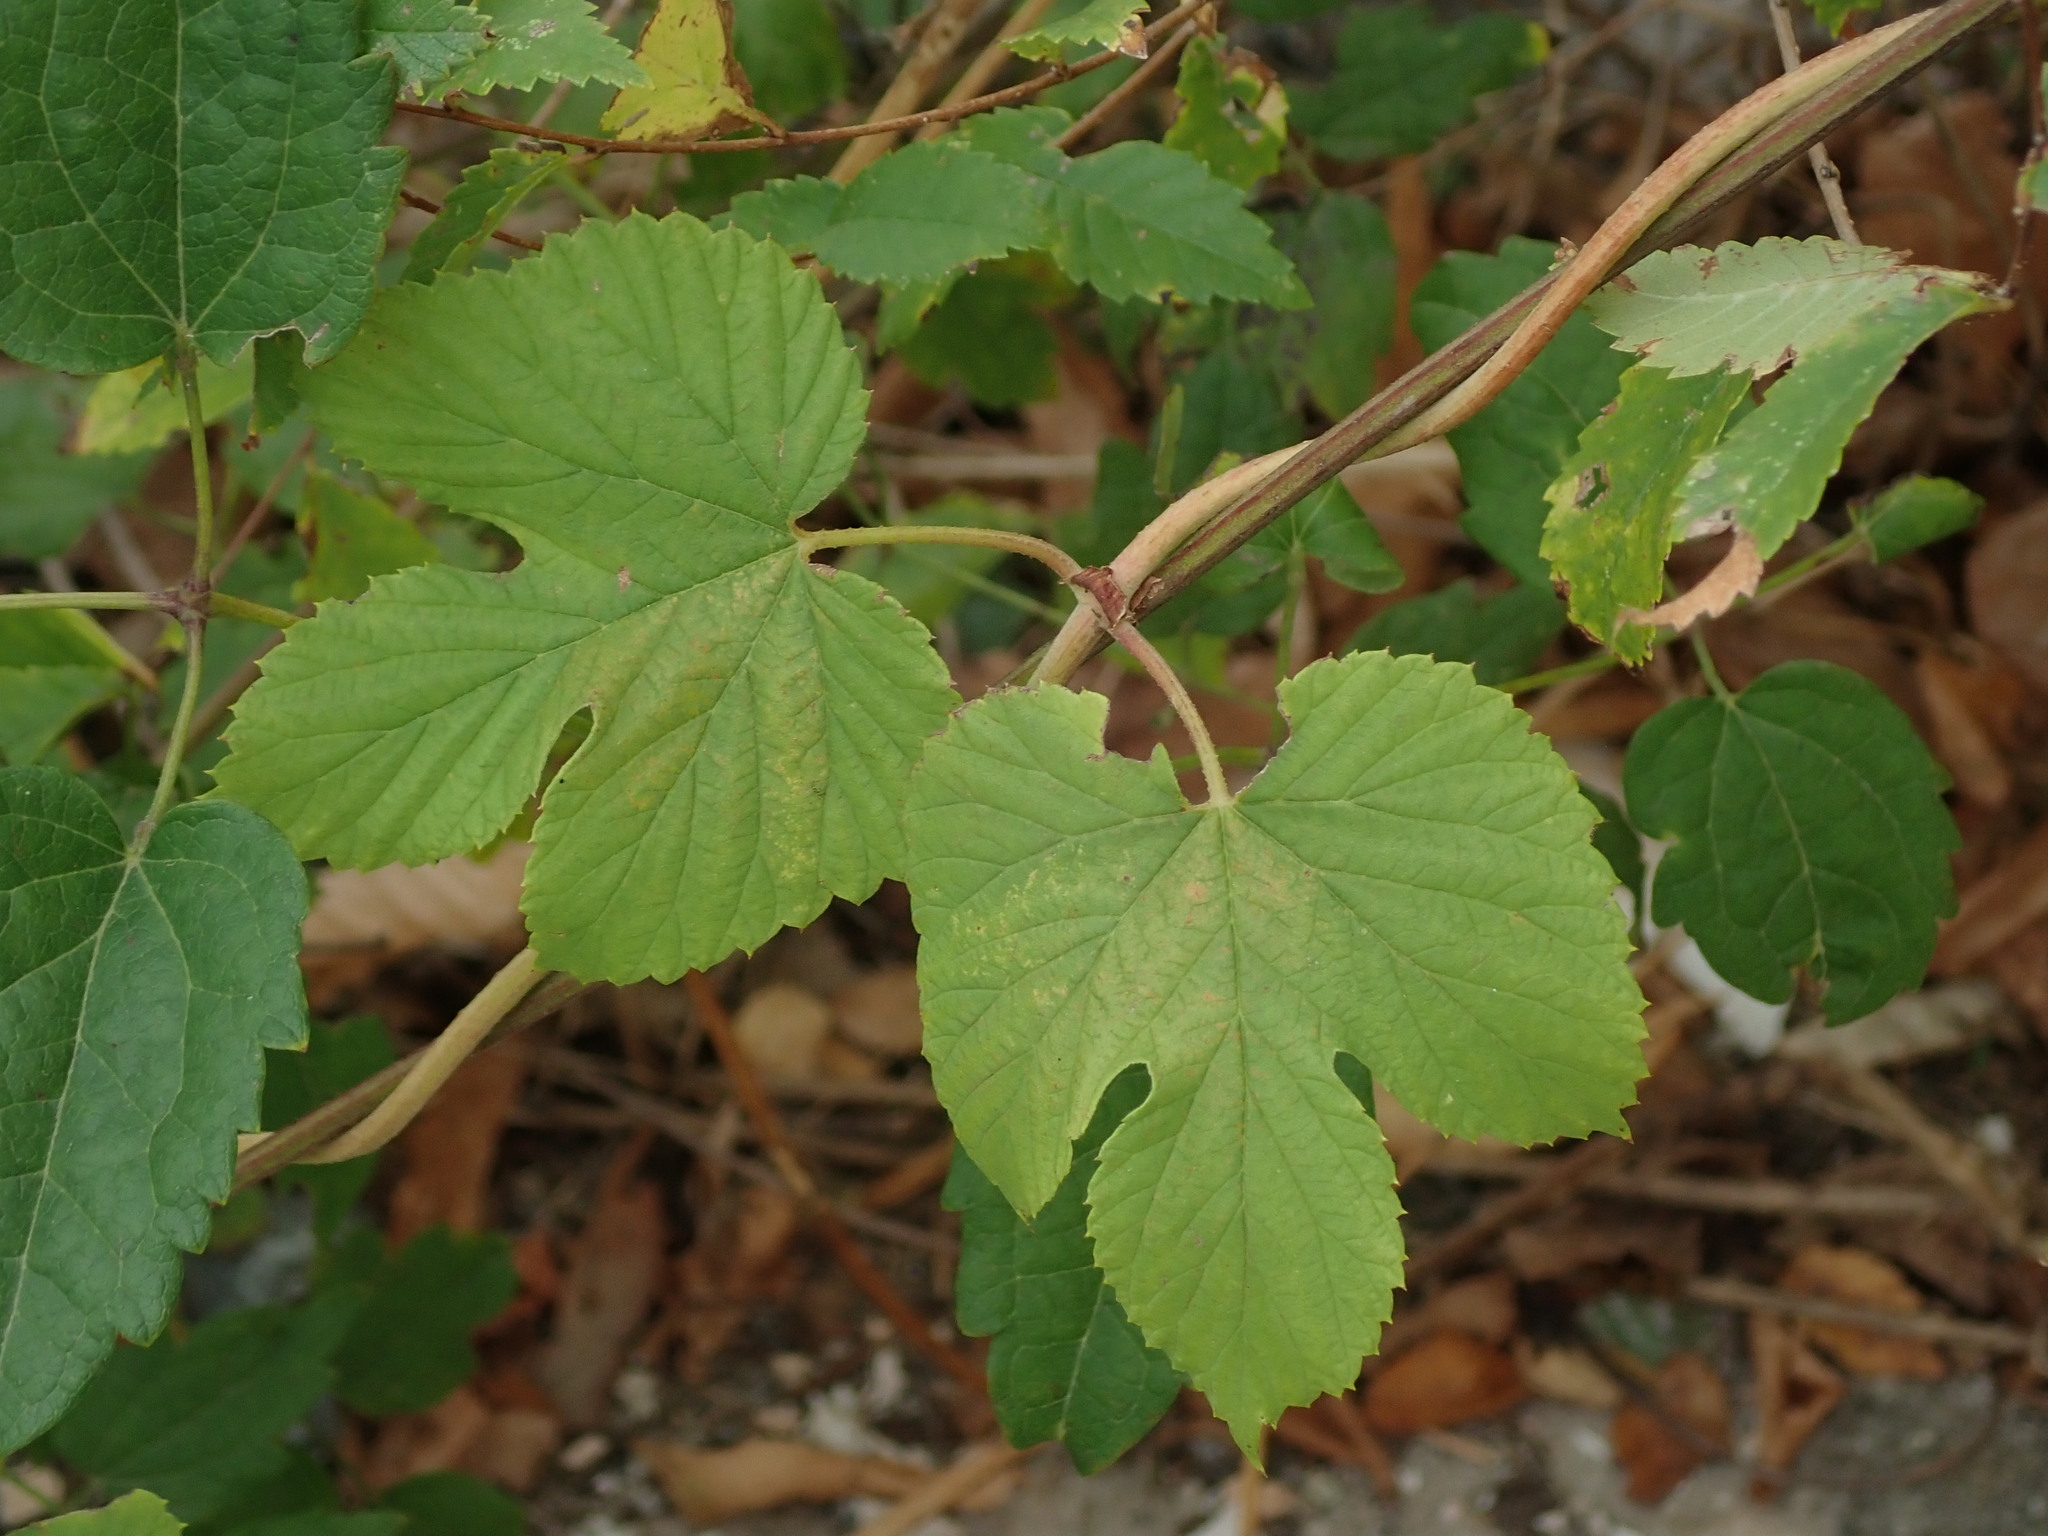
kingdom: Plantae
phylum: Tracheophyta
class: Magnoliopsida
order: Rosales
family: Cannabaceae
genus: Humulus
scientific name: Humulus lupulus
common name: Hop
